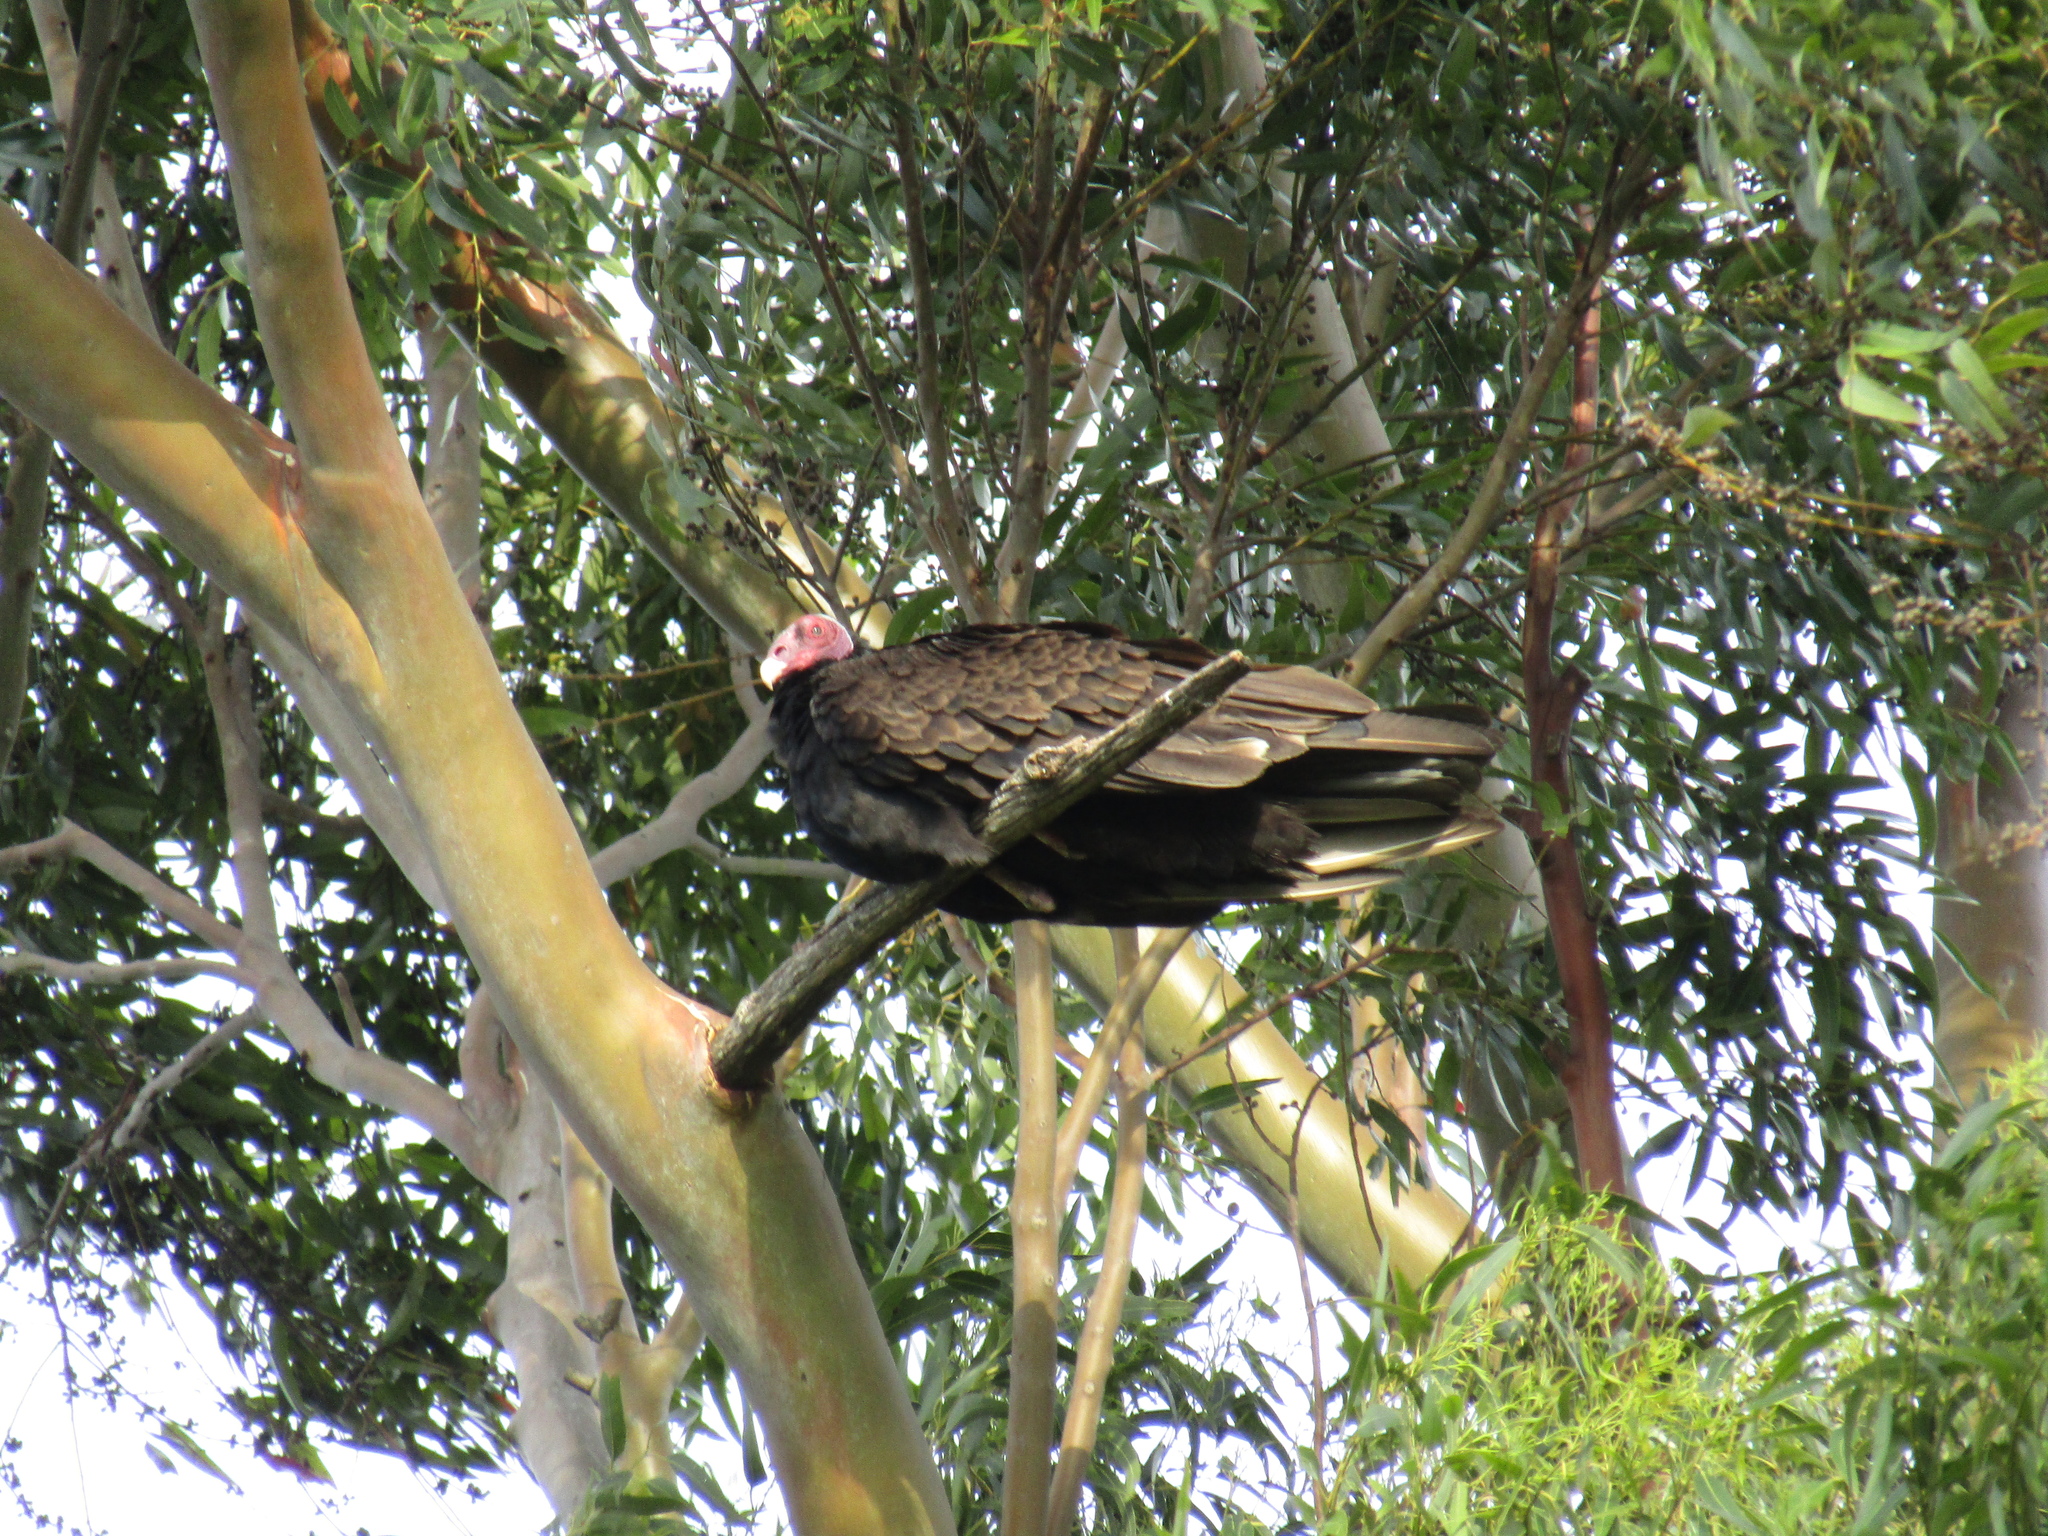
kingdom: Animalia
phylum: Chordata
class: Aves
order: Accipitriformes
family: Cathartidae
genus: Cathartes
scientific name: Cathartes aura
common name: Turkey vulture
